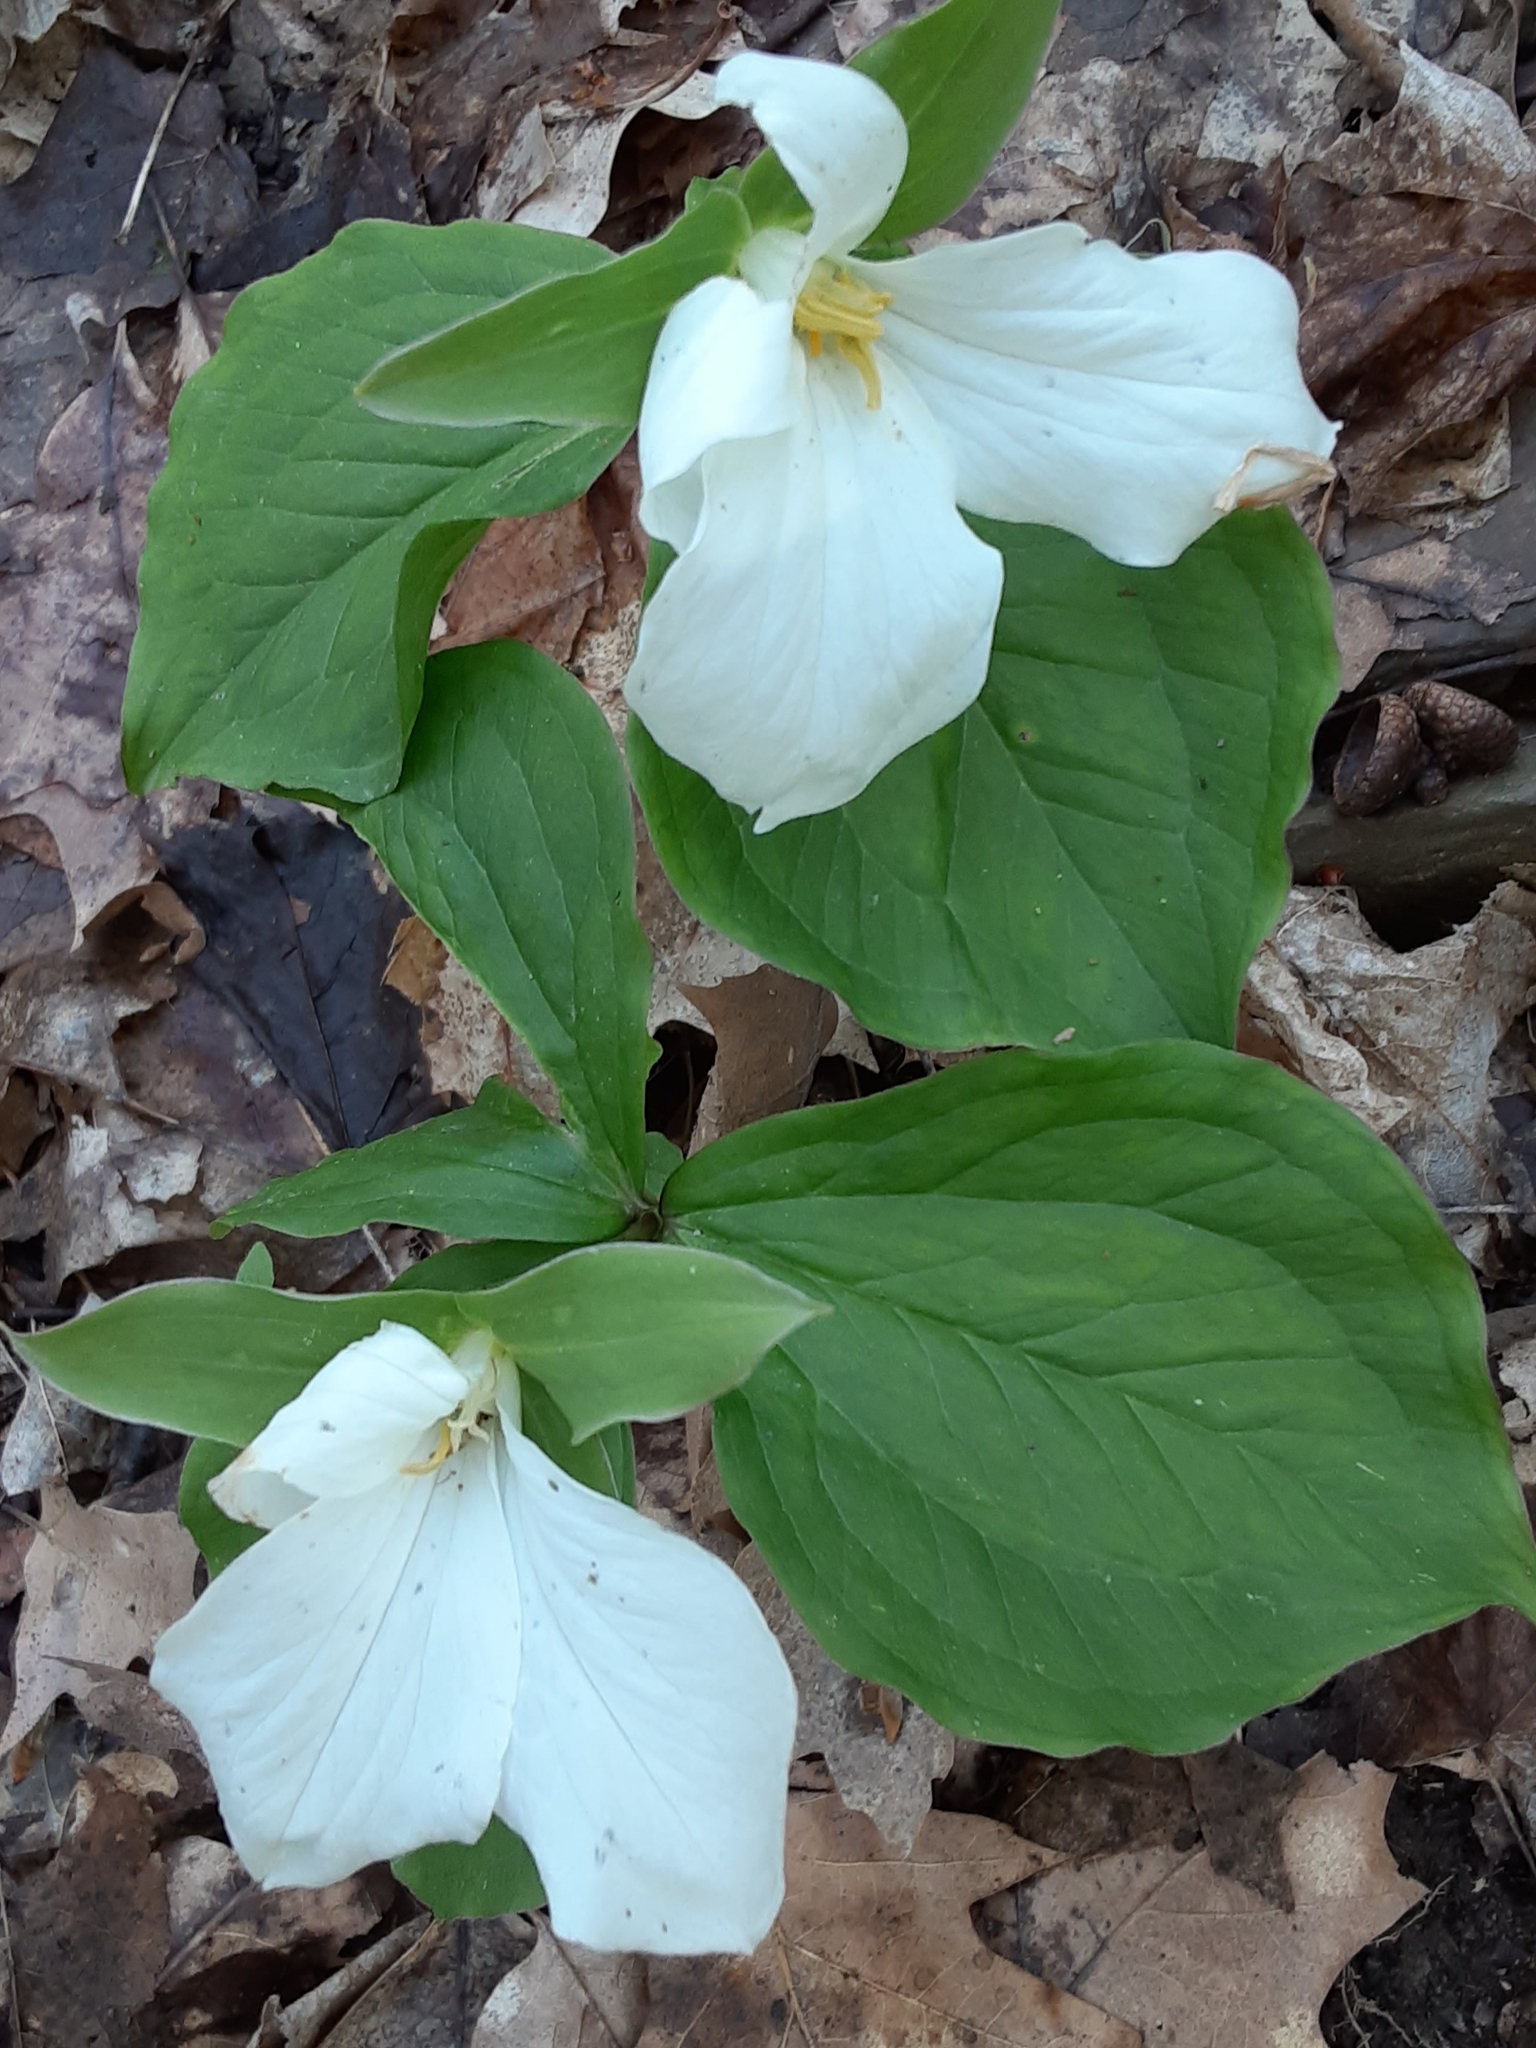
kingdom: Plantae
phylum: Tracheophyta
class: Liliopsida
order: Liliales
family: Melanthiaceae
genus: Trillium
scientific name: Trillium grandiflorum
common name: Great white trillium
